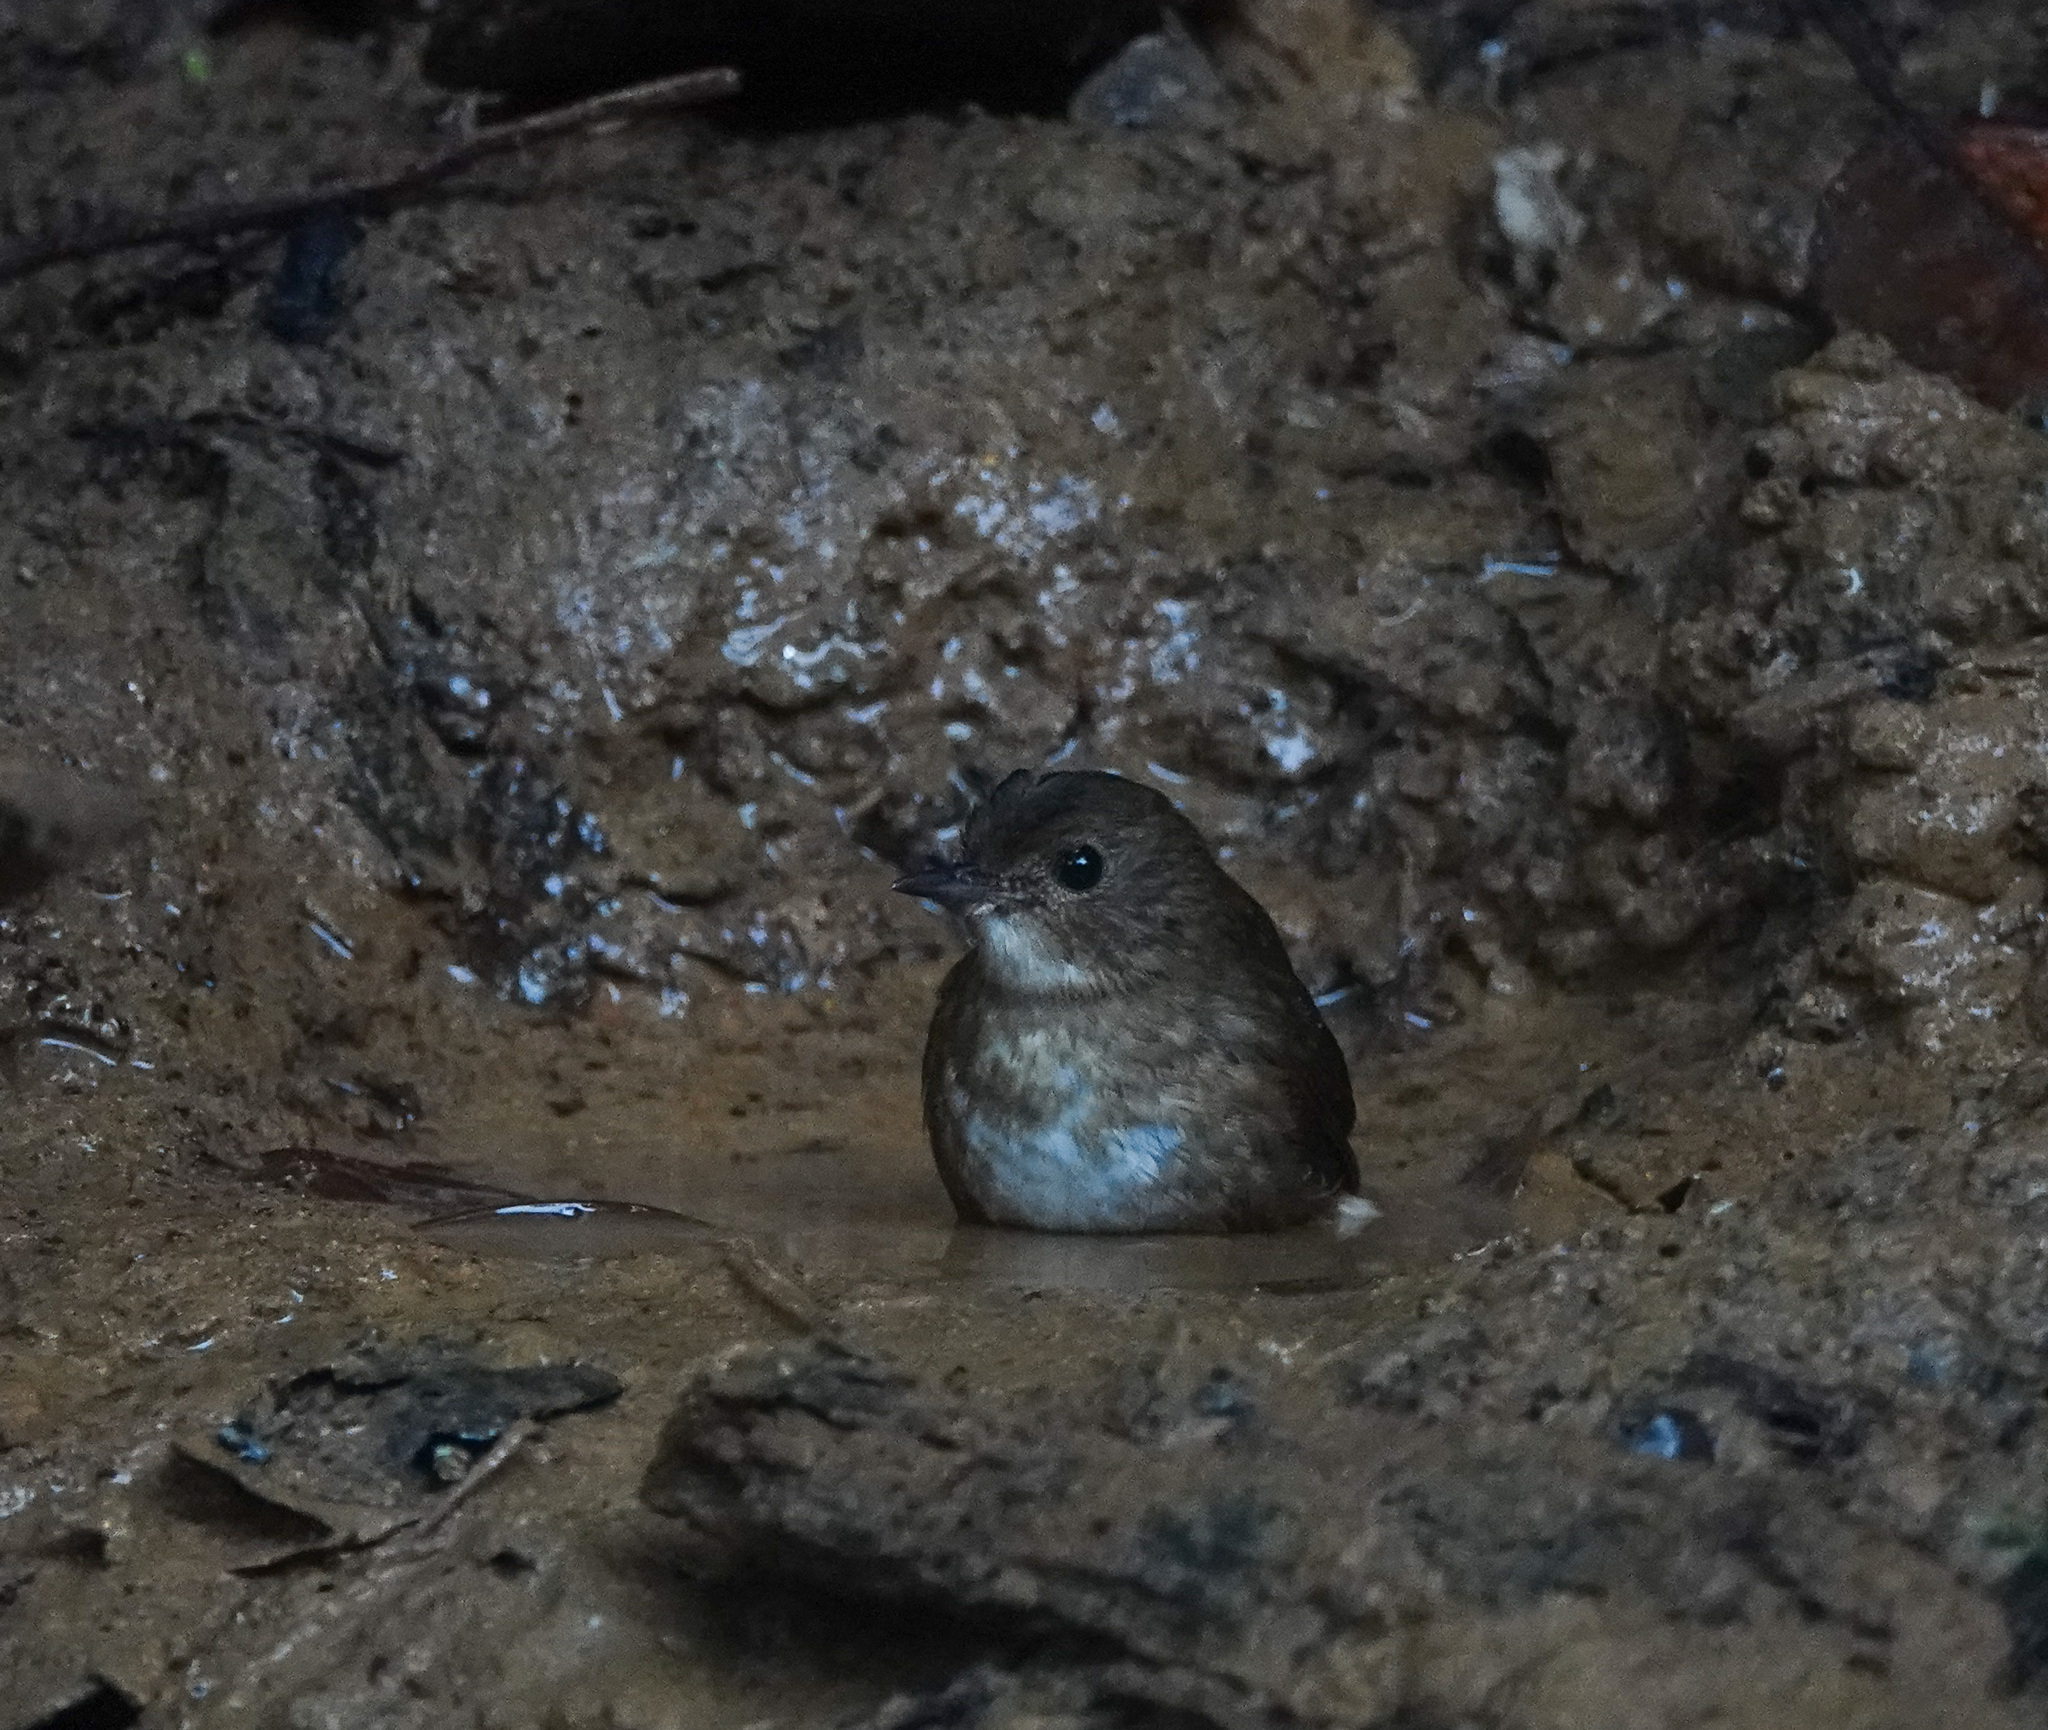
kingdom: Animalia
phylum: Chordata
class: Aves
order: Passeriformes
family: Muscicapidae
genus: Brachypteryx
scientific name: Brachypteryx leucophris
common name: Lesser shortwing
